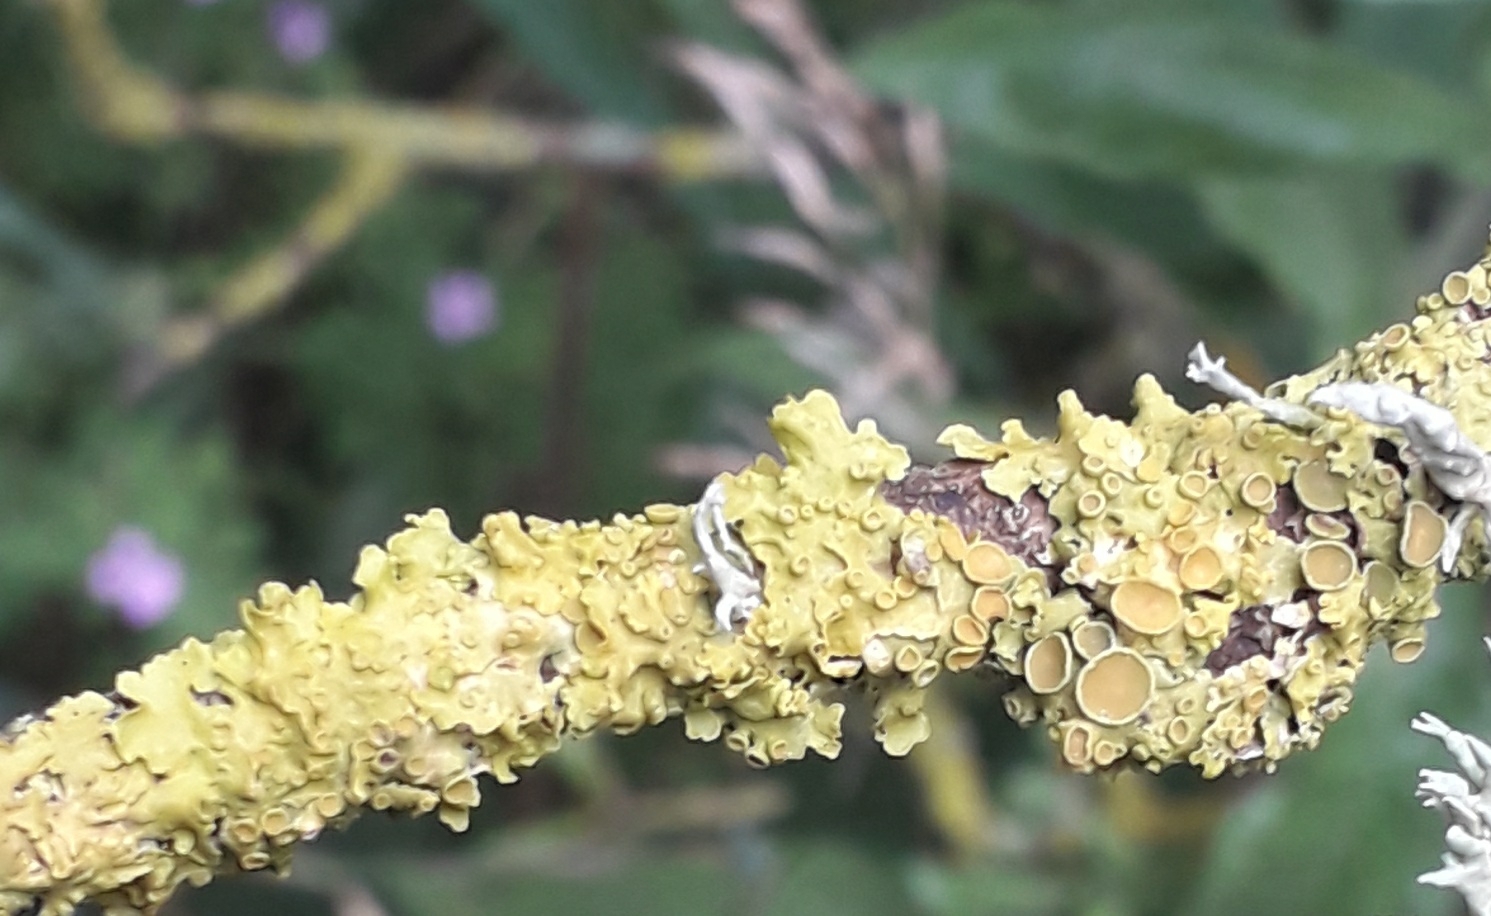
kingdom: Fungi
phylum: Ascomycota
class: Lecanoromycetes
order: Teloschistales
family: Teloschistaceae
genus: Xanthoria
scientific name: Xanthoria parietina
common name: Common orange lichen
